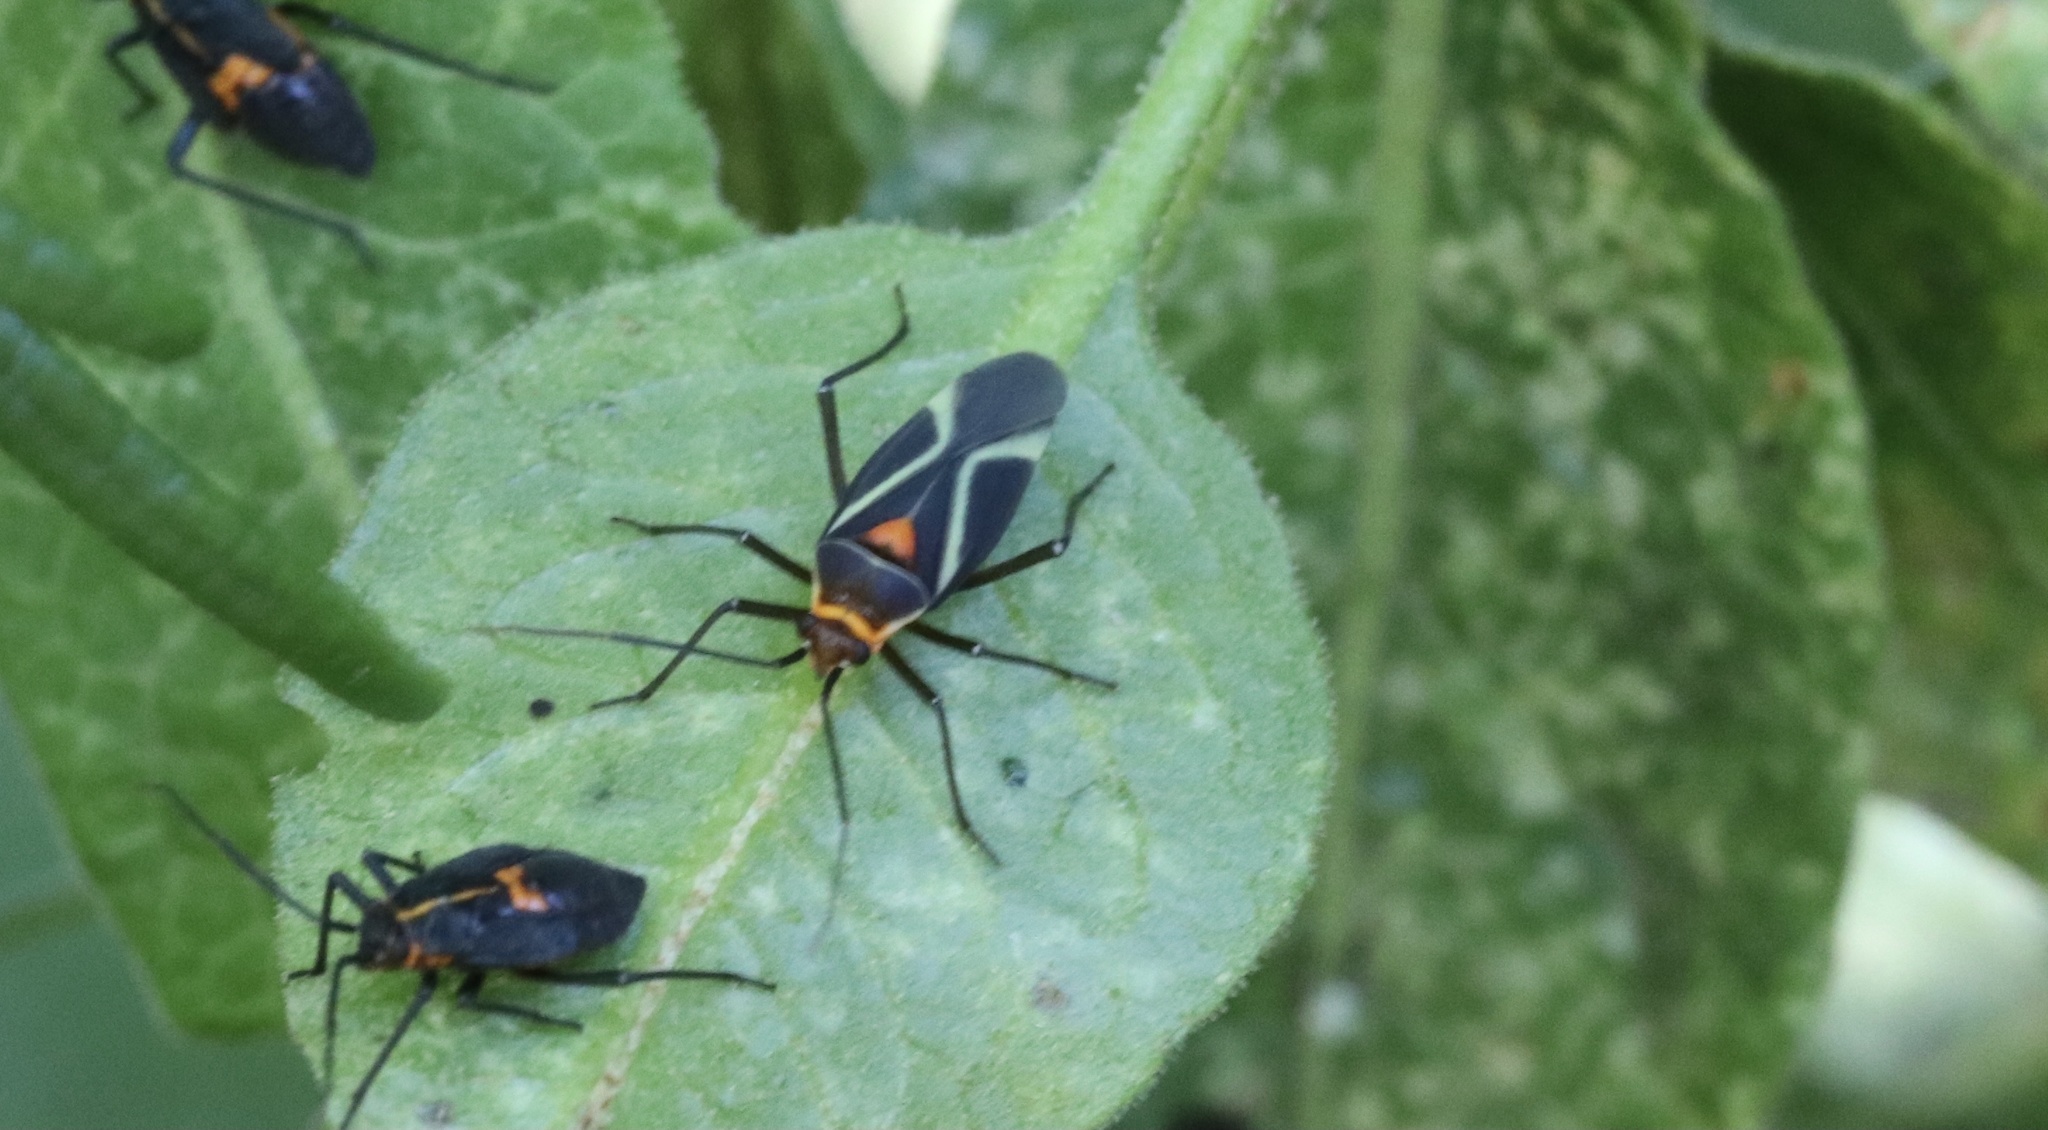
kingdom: Animalia
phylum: Arthropoda
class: Insecta
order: Hemiptera
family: Miridae
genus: Eurylomata
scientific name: Eurylomata picturata
